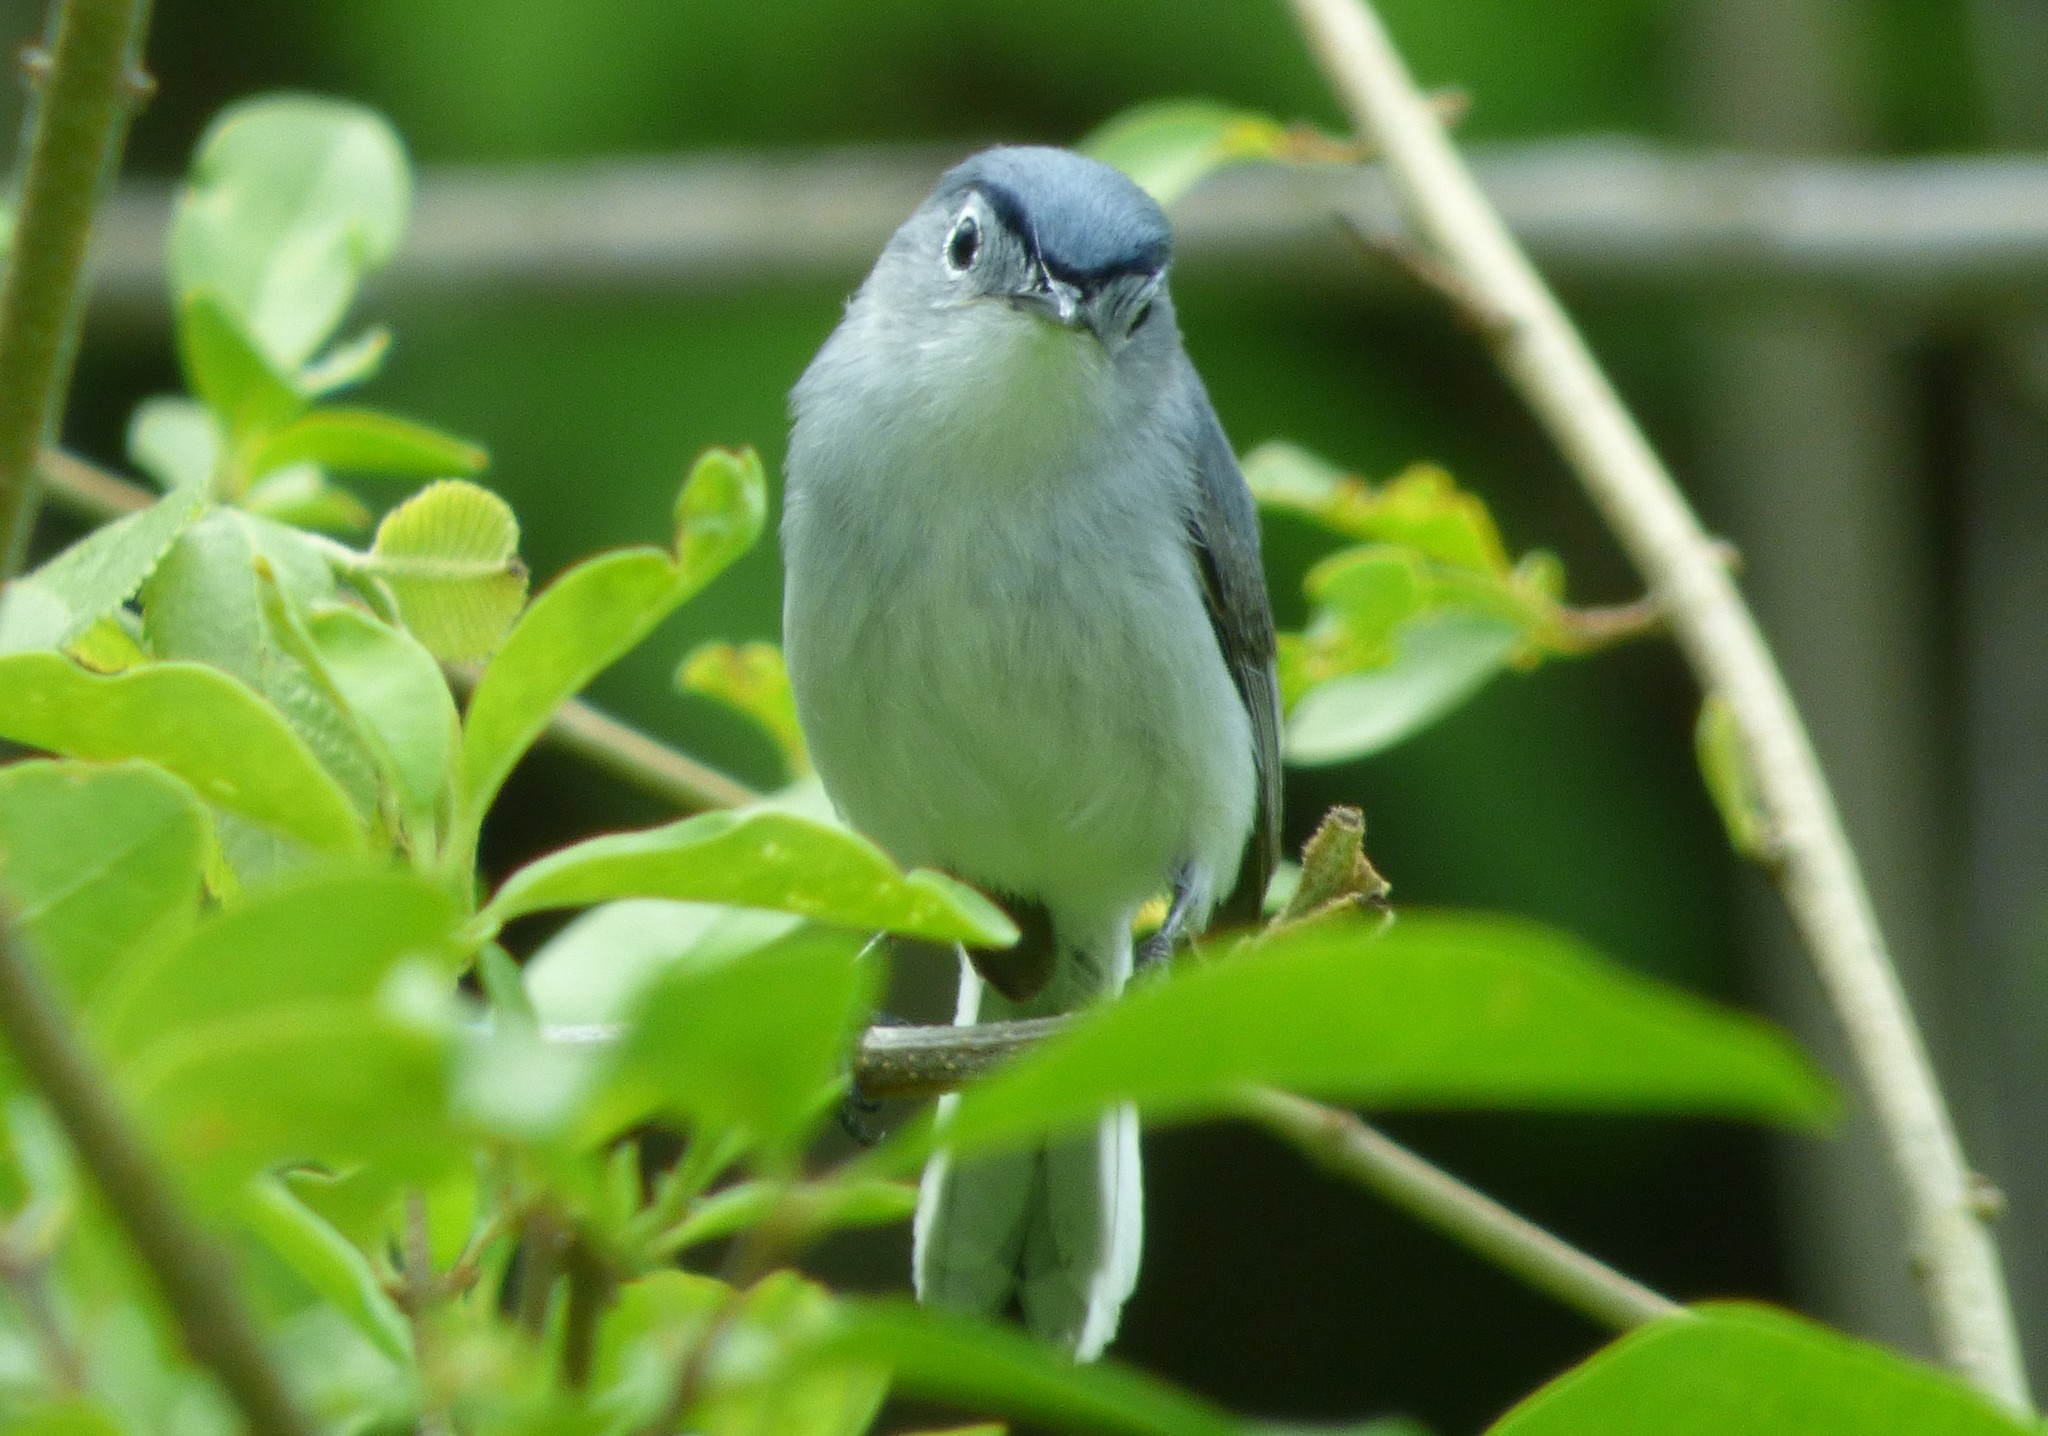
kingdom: Animalia
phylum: Chordata
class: Aves
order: Passeriformes
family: Polioptilidae
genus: Polioptila
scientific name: Polioptila caerulea
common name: Blue-gray gnatcatcher
